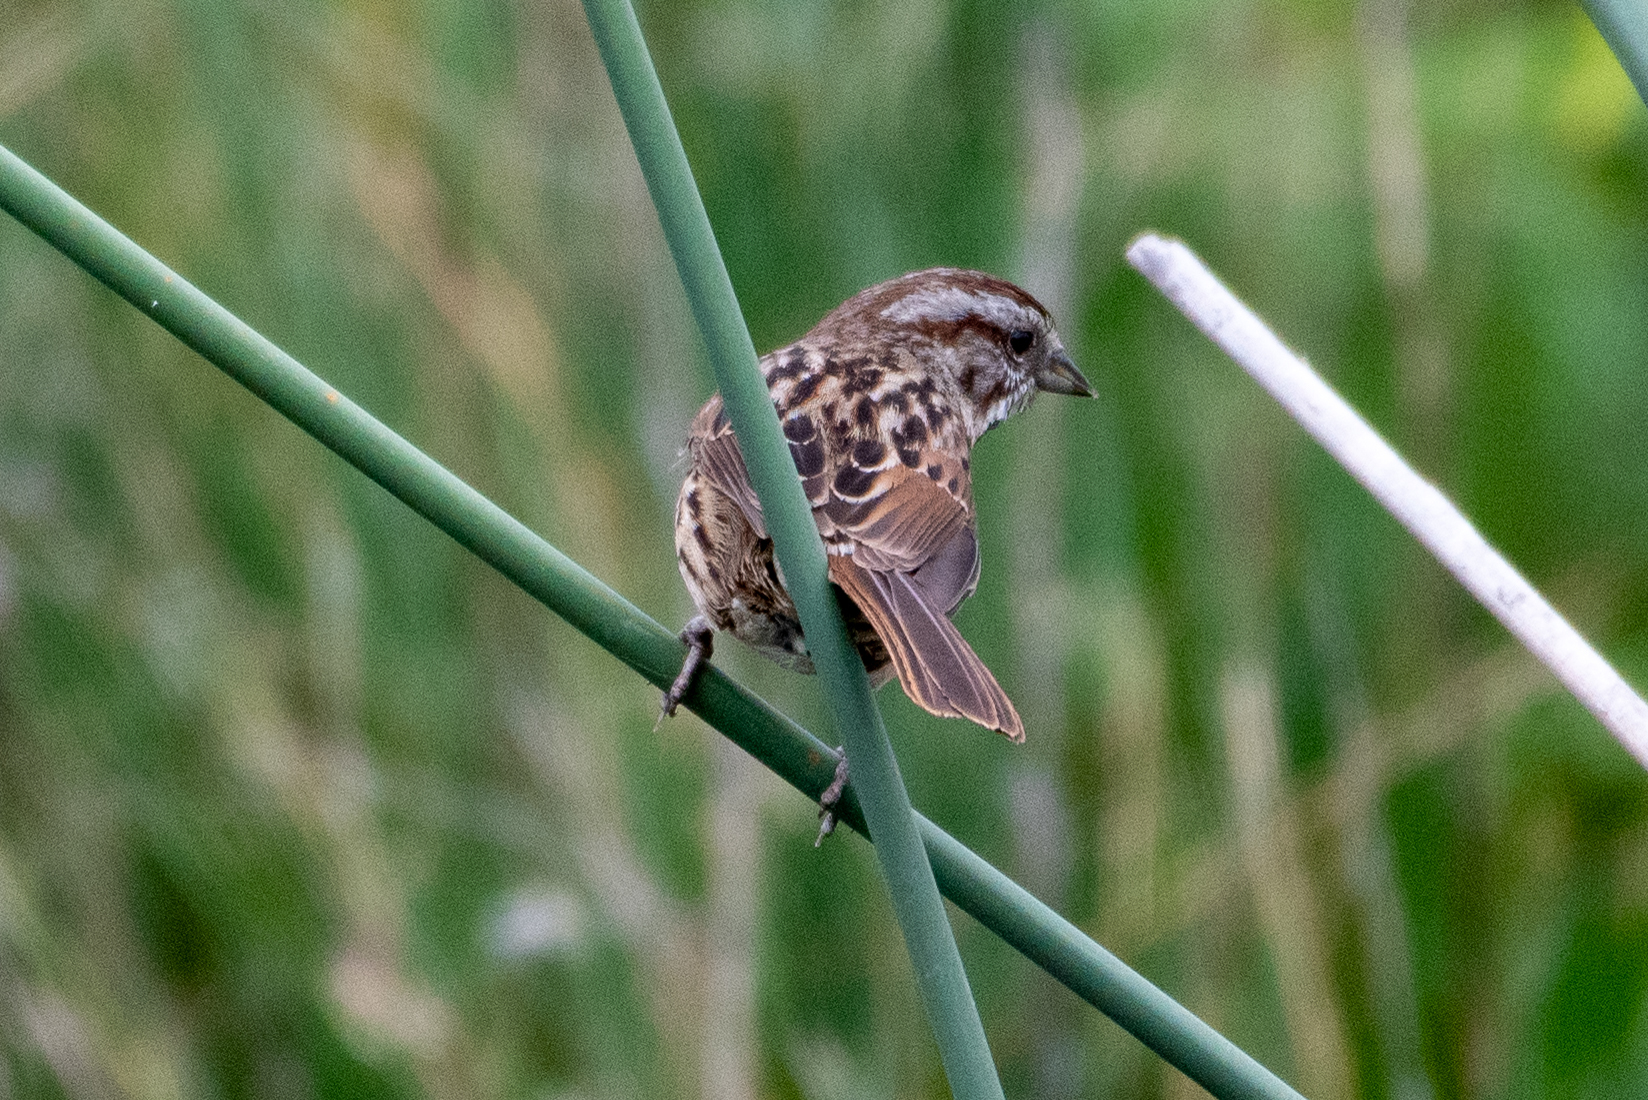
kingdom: Animalia
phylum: Chordata
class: Aves
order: Passeriformes
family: Passerellidae
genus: Melospiza
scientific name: Melospiza melodia
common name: Song sparrow
